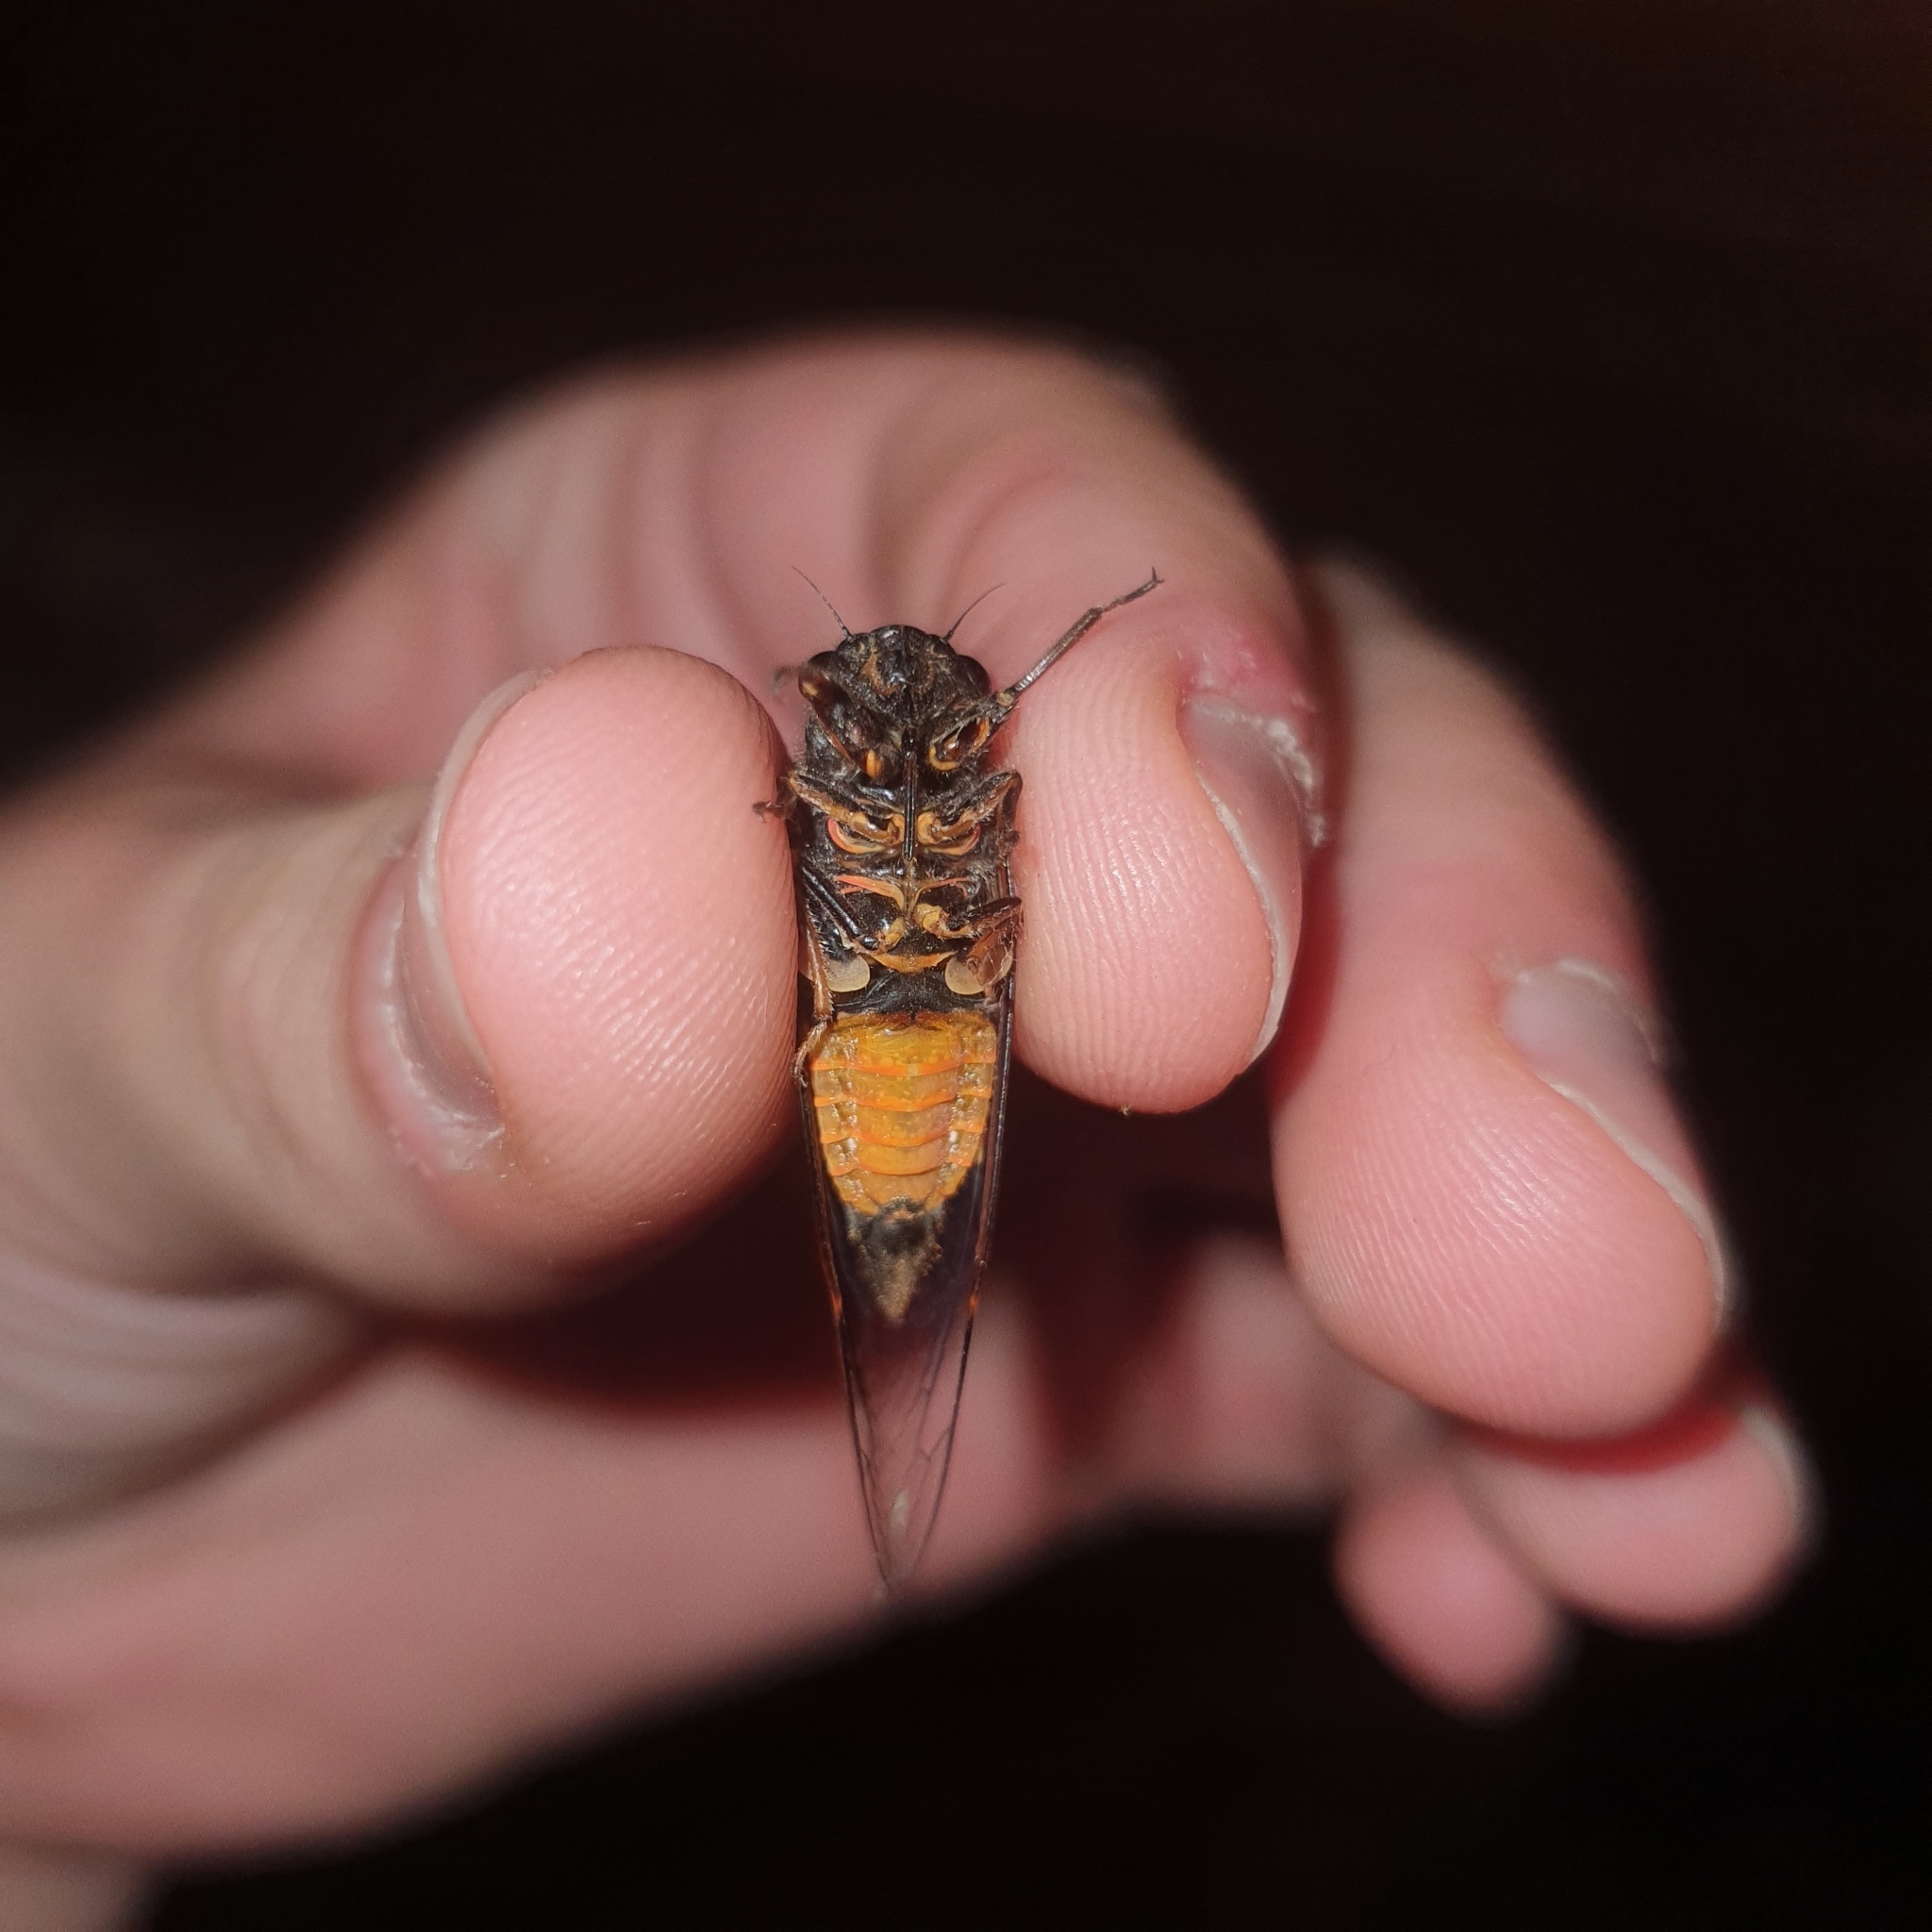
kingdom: Animalia
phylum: Arthropoda
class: Insecta
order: Hemiptera
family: Cicadidae
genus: Yoyetta
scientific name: Yoyetta robertsonae
